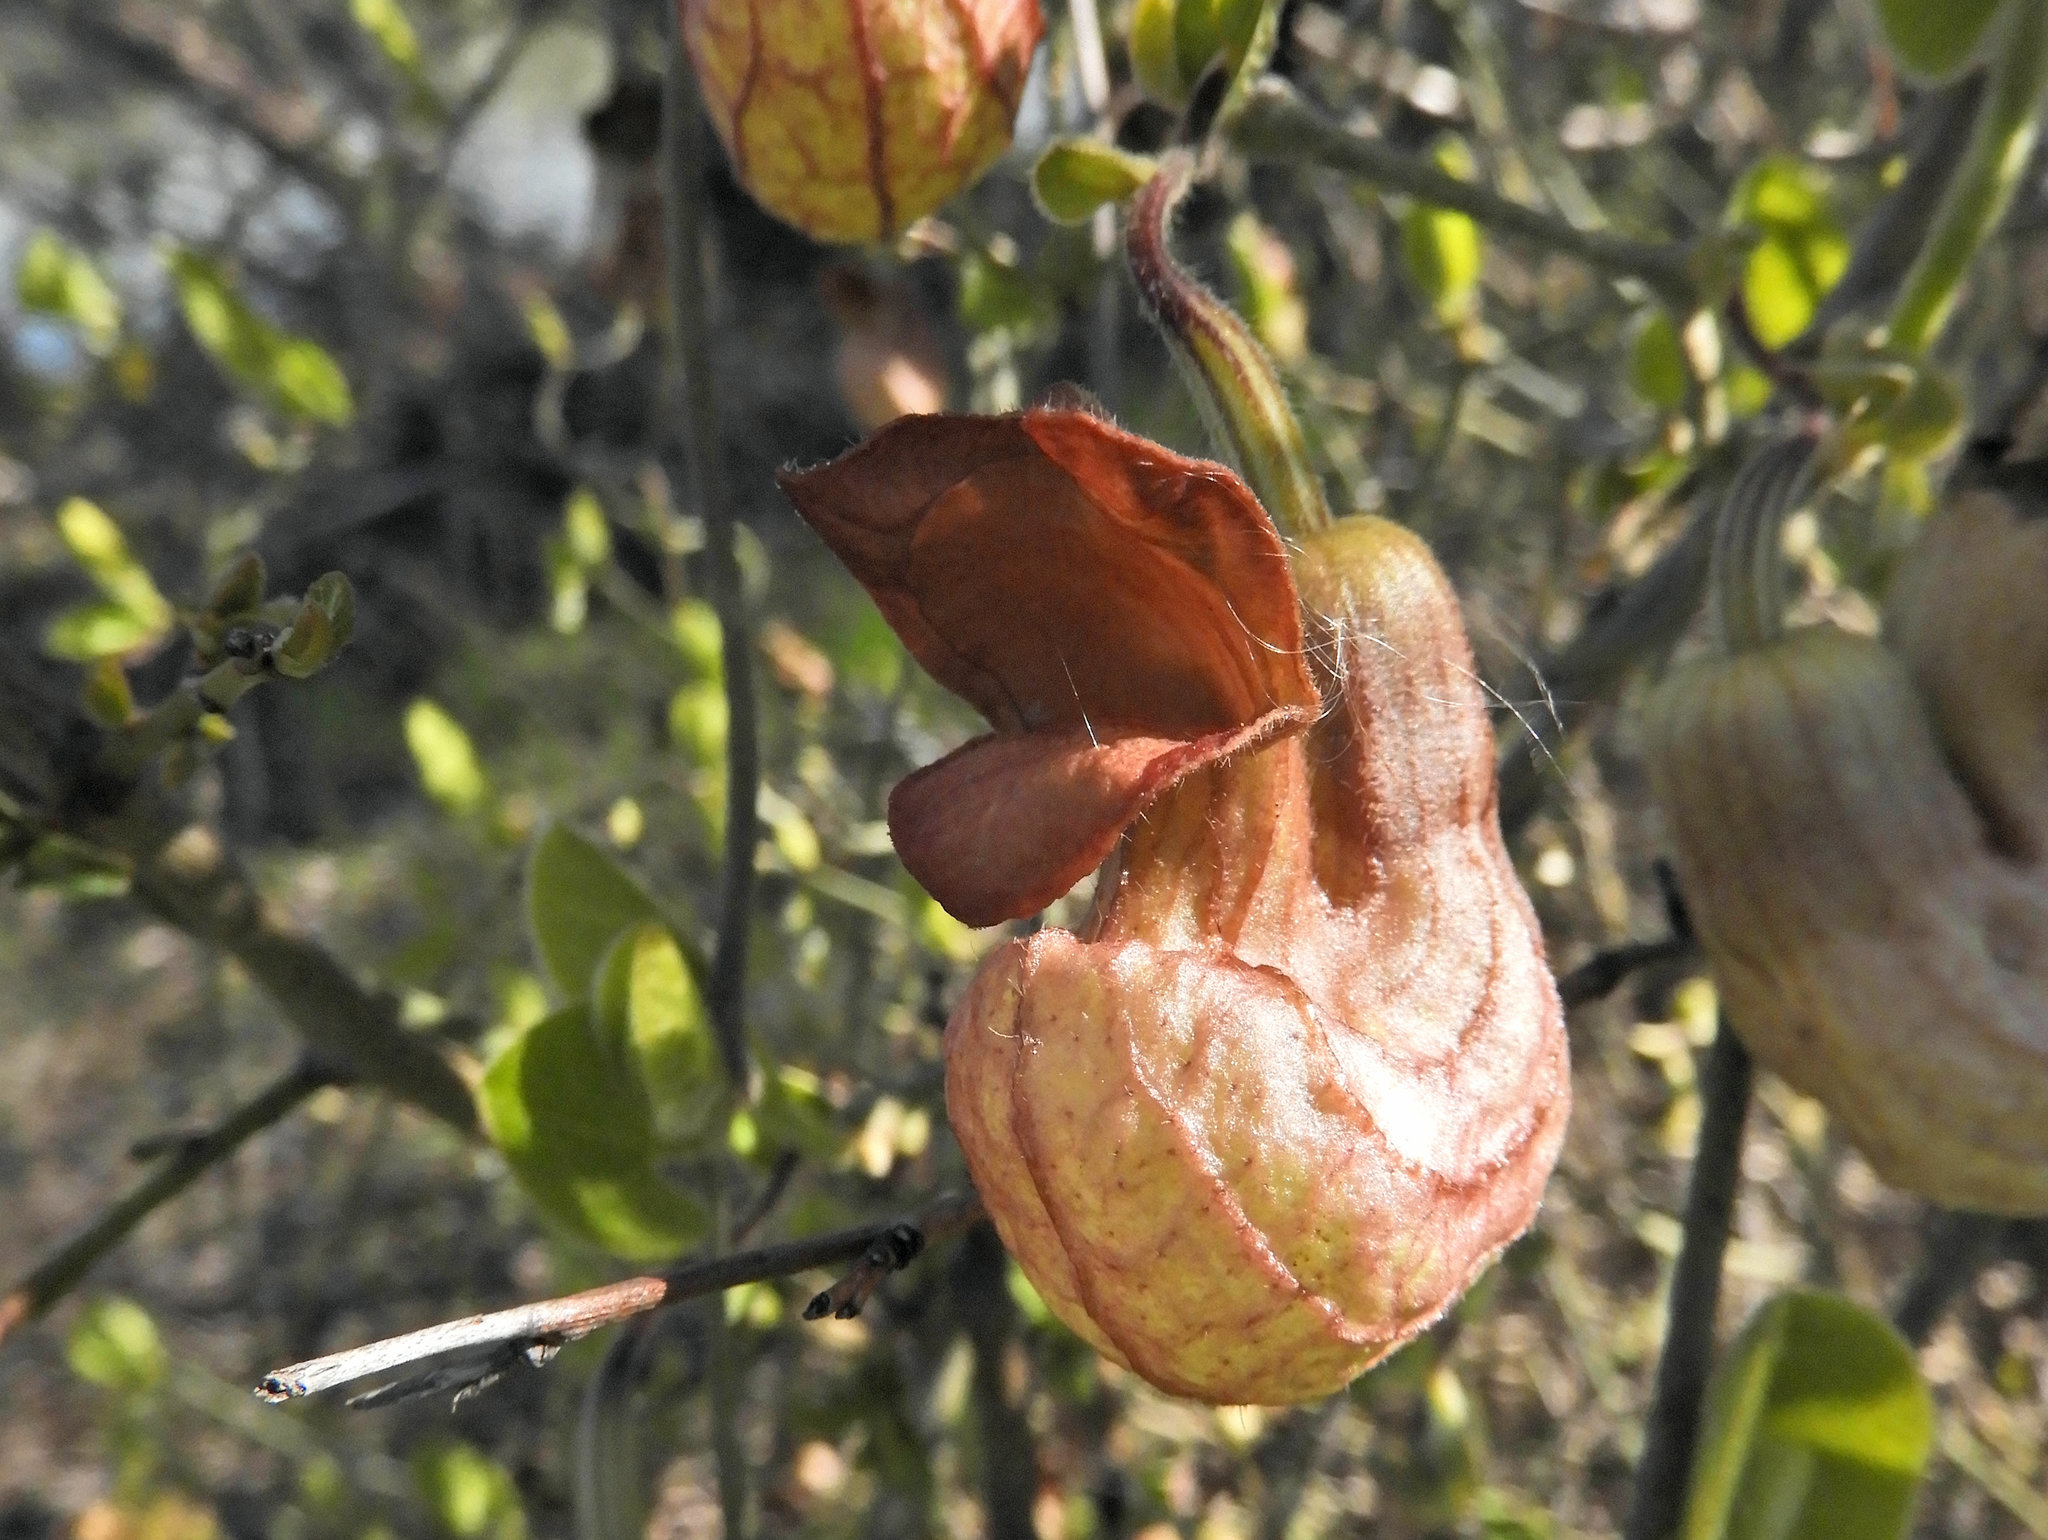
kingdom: Plantae
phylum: Tracheophyta
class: Magnoliopsida
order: Piperales
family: Aristolochiaceae
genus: Isotrema
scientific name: Isotrema californicum
